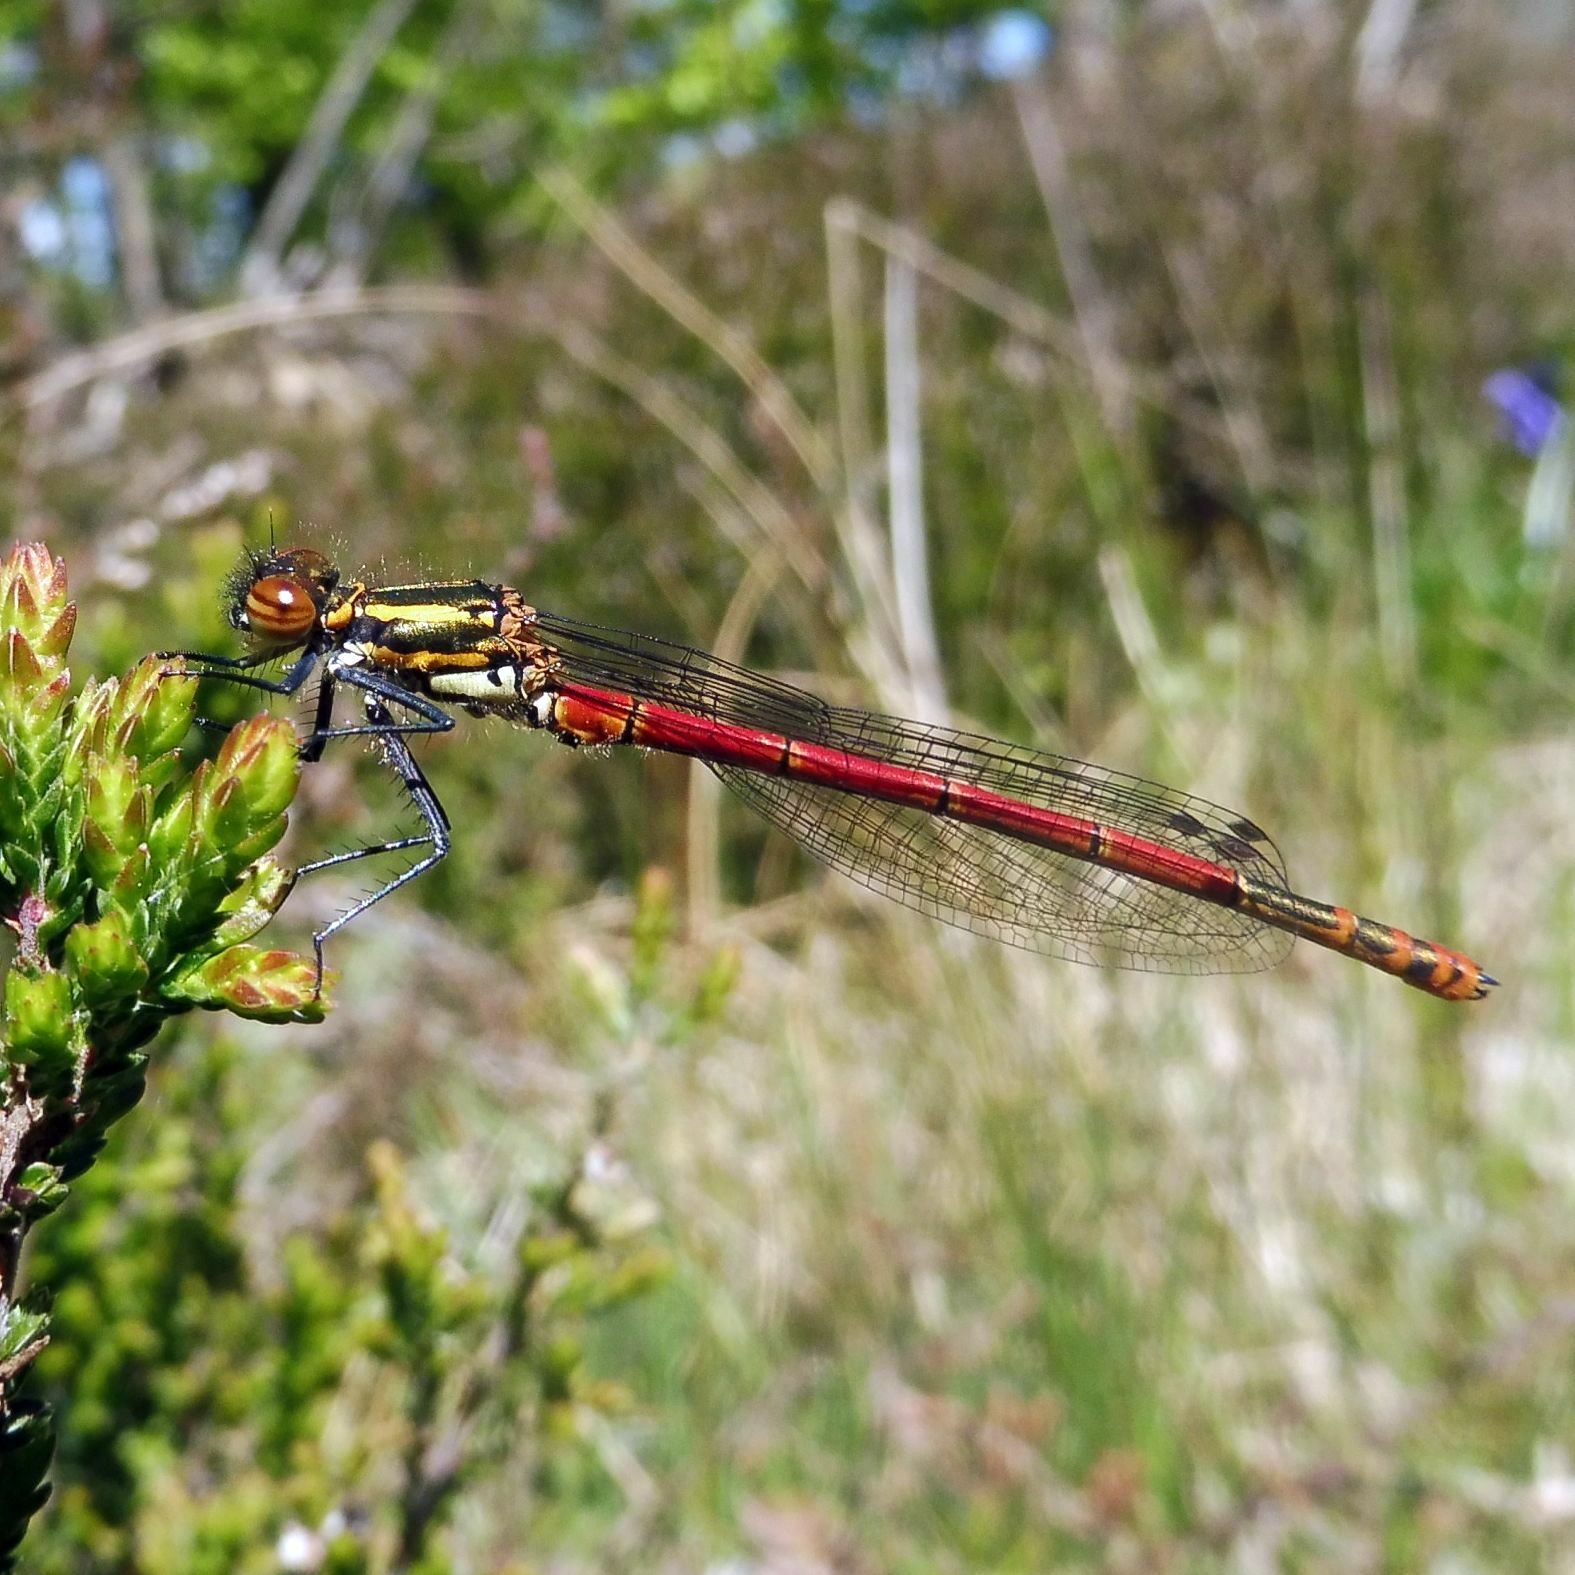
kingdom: Animalia
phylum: Arthropoda
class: Insecta
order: Odonata
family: Coenagrionidae
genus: Pyrrhosoma
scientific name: Pyrrhosoma nymphula
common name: Large red damsel
